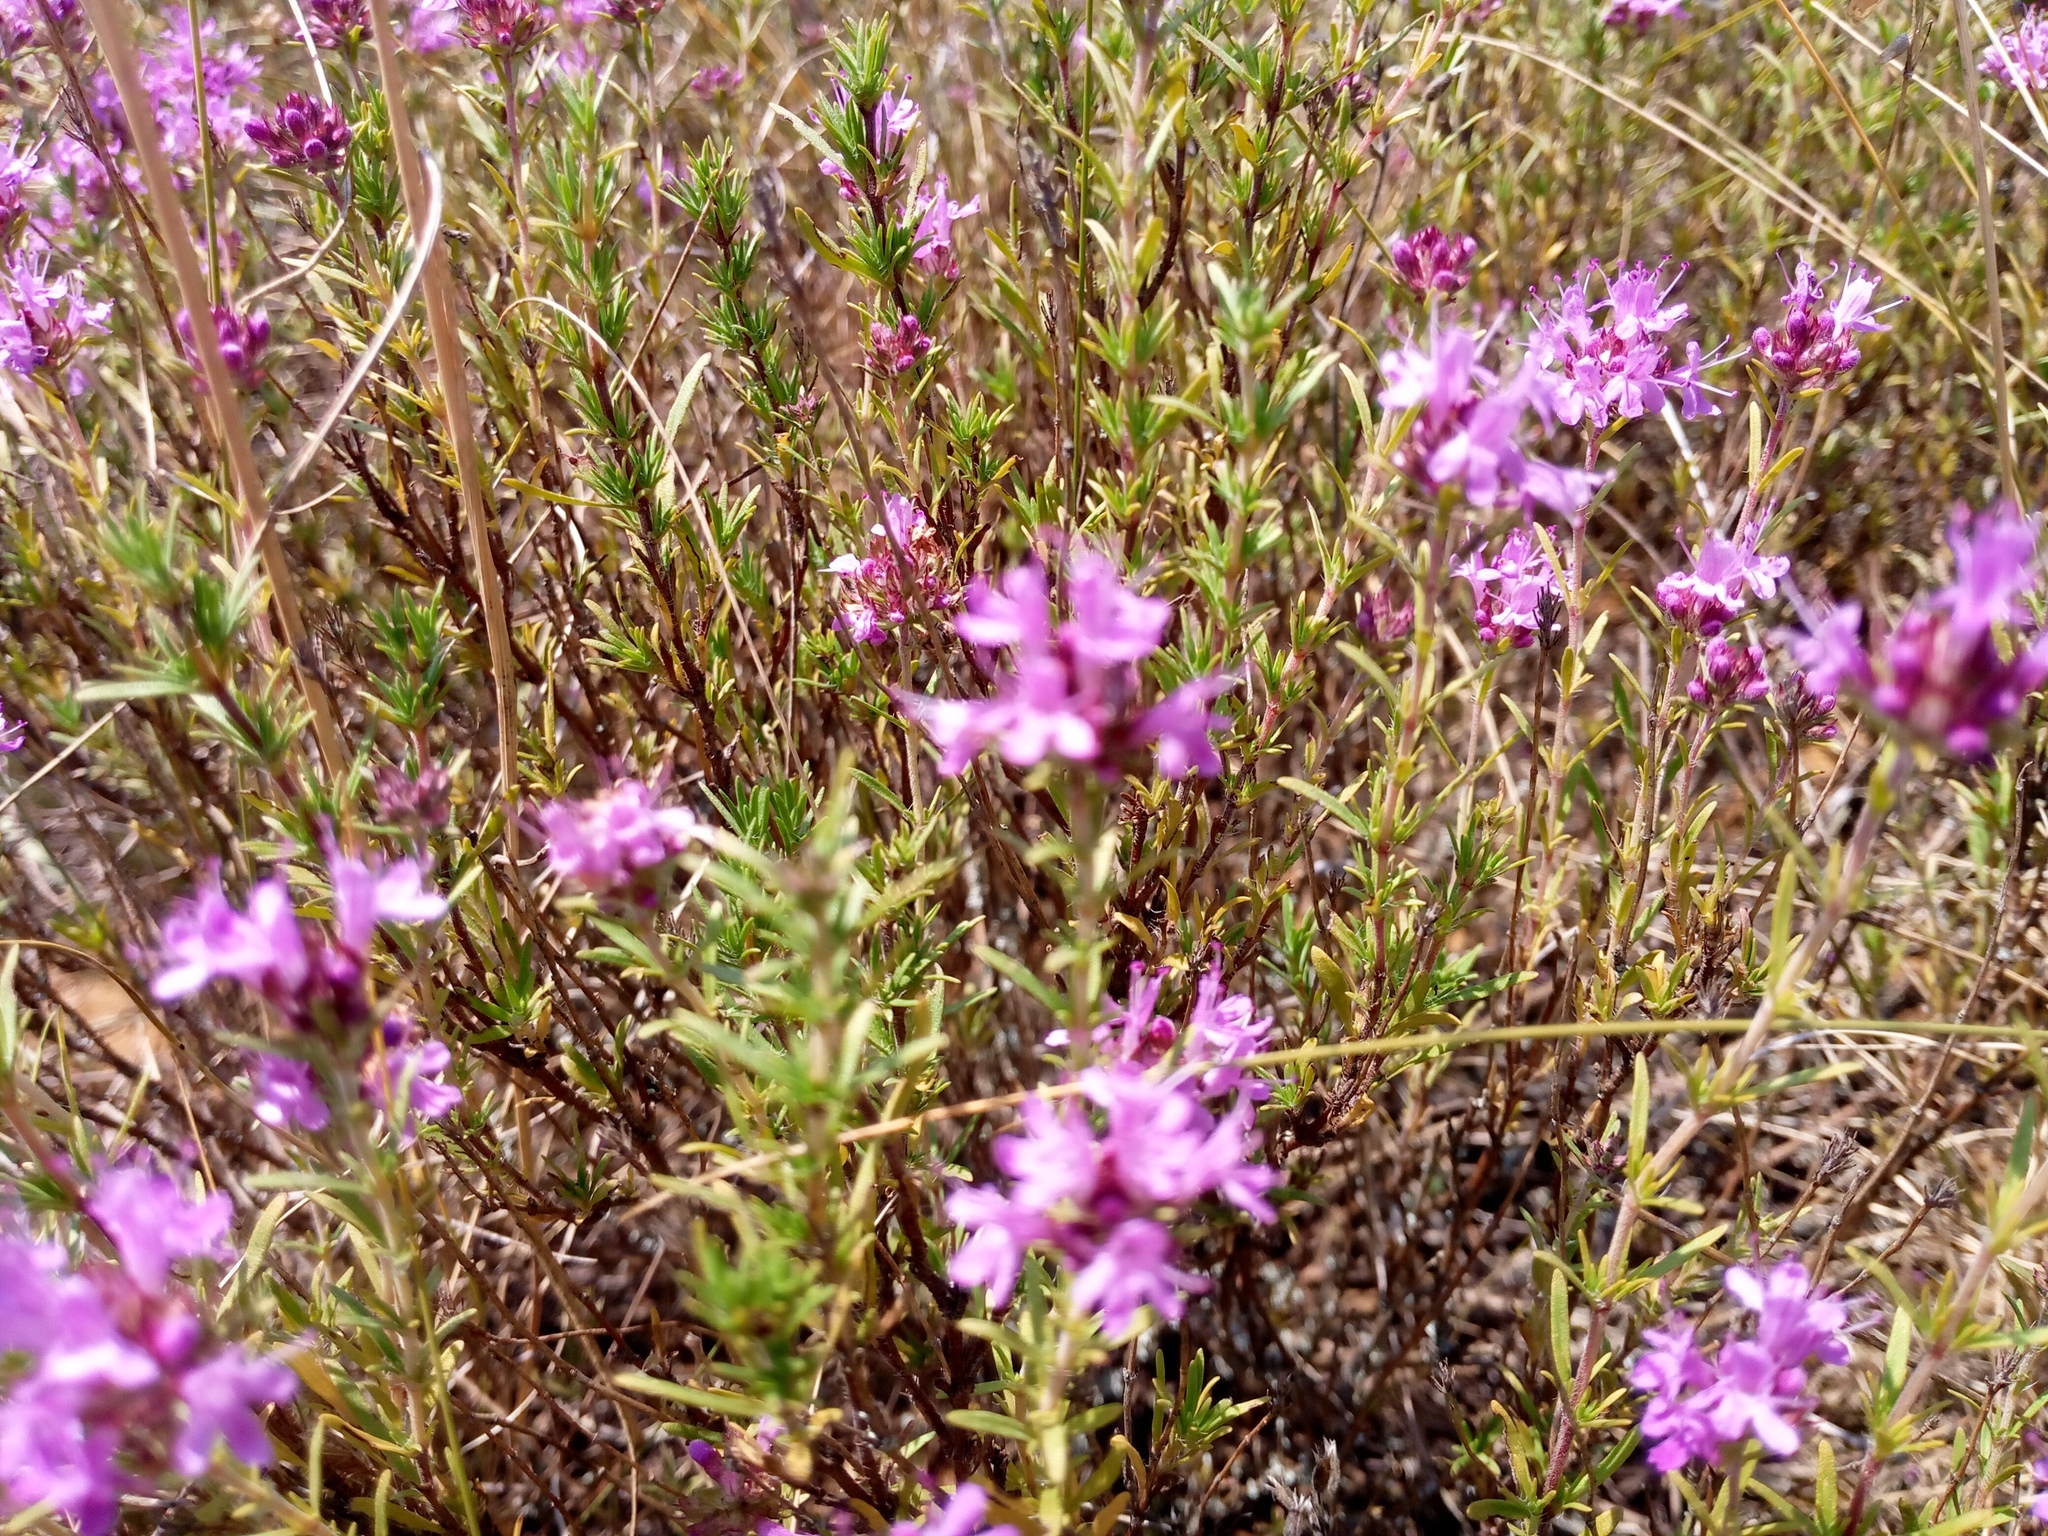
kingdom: Plantae
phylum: Tracheophyta
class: Magnoliopsida
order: Lamiales
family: Lamiaceae
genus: Thymus
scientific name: Thymus pallasianus
